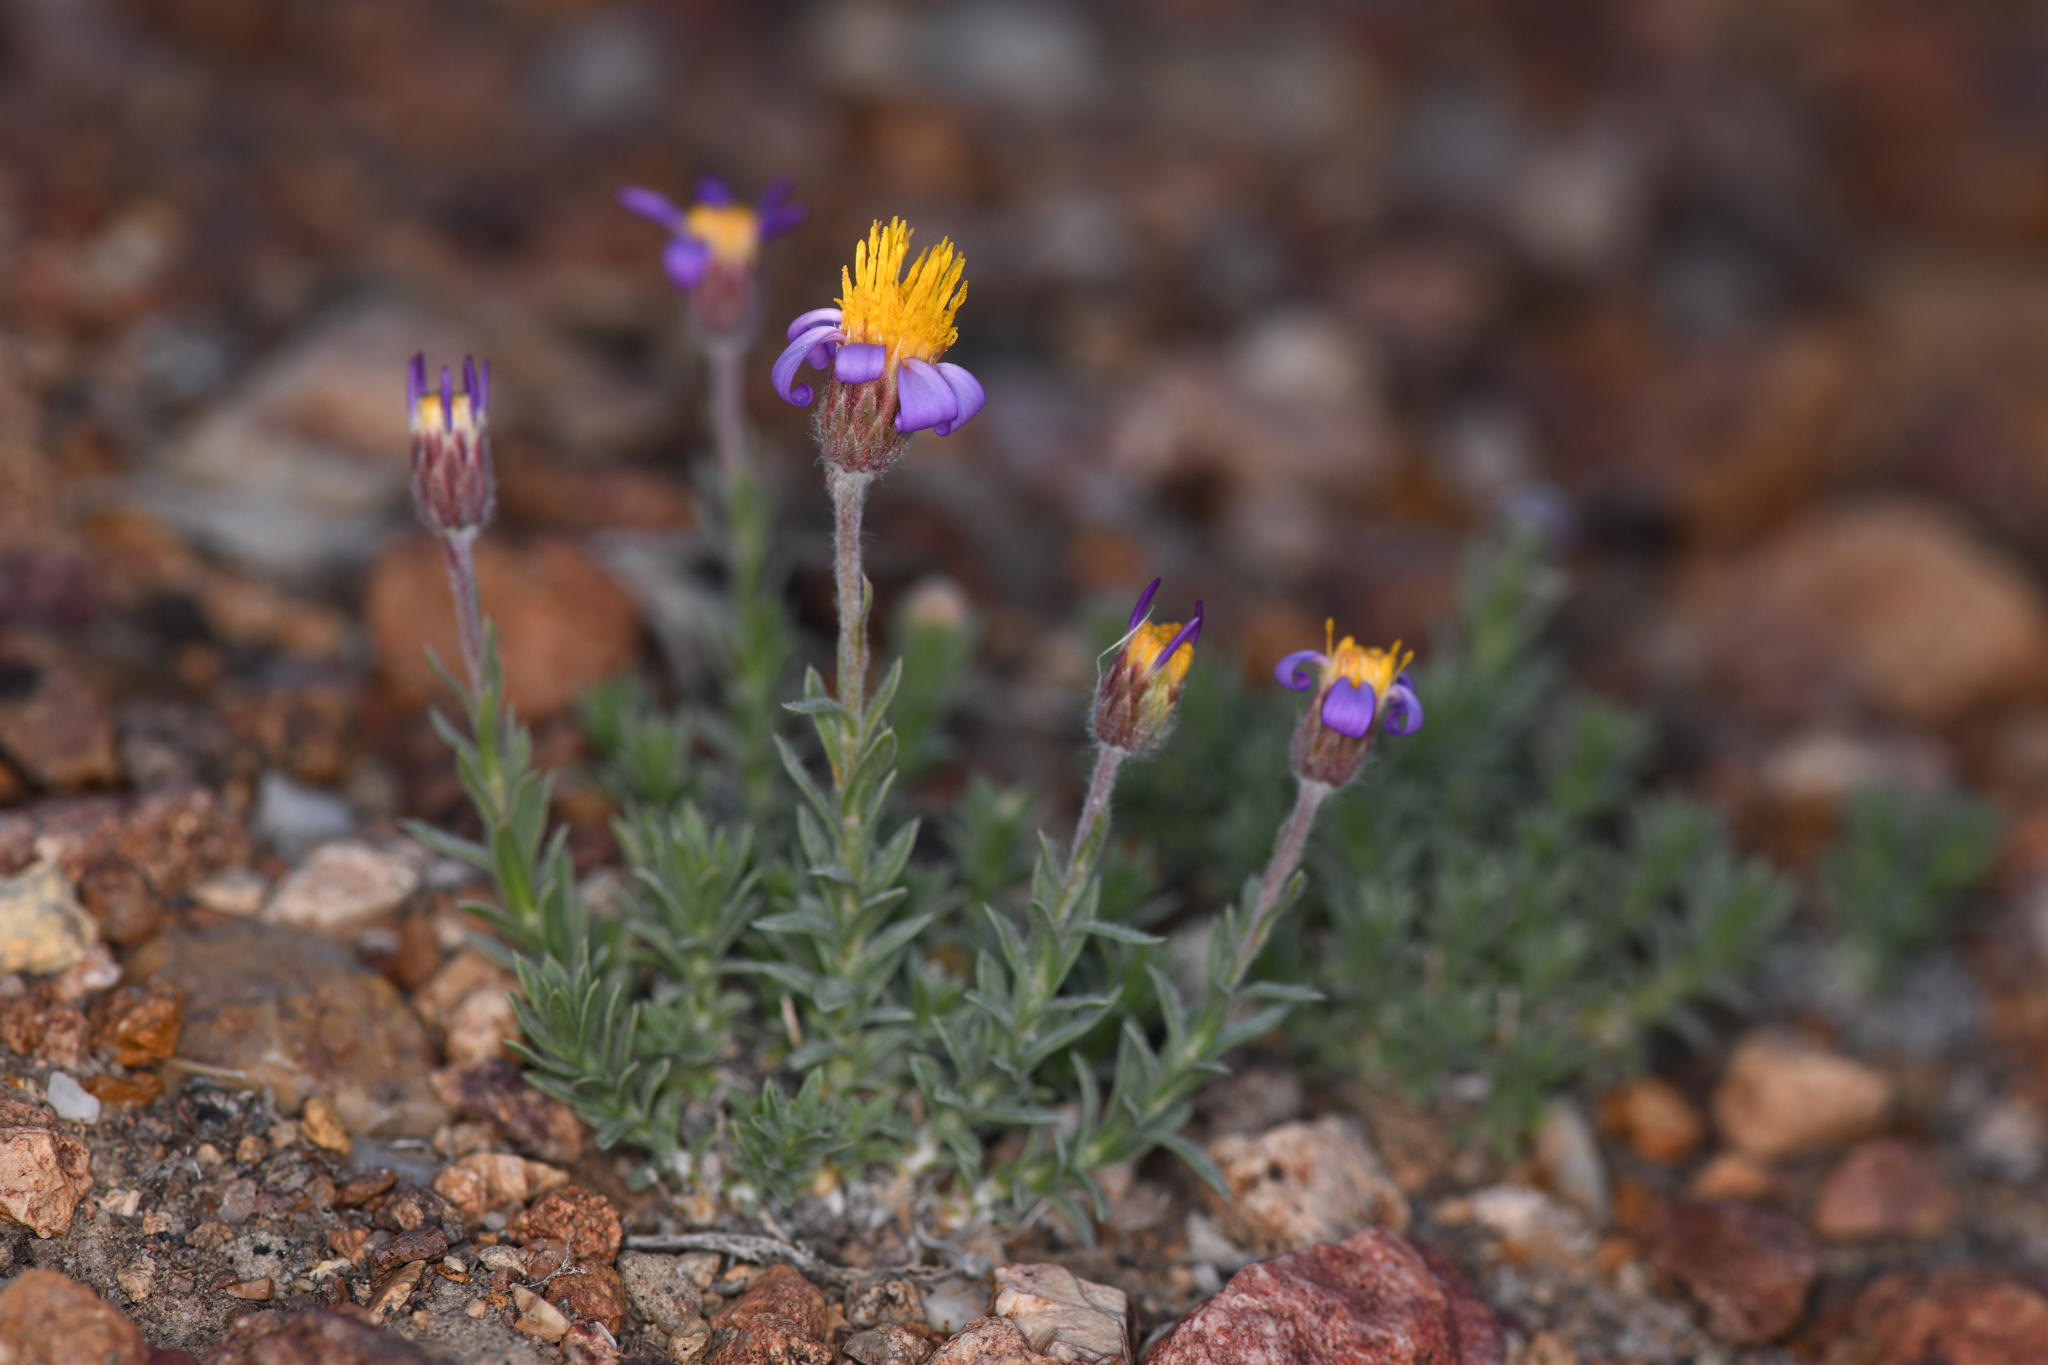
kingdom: Plantae
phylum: Tracheophyta
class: Magnoliopsida
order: Asterales
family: Asteraceae
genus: Ionactis
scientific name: Ionactis alpina
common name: Crag aster
